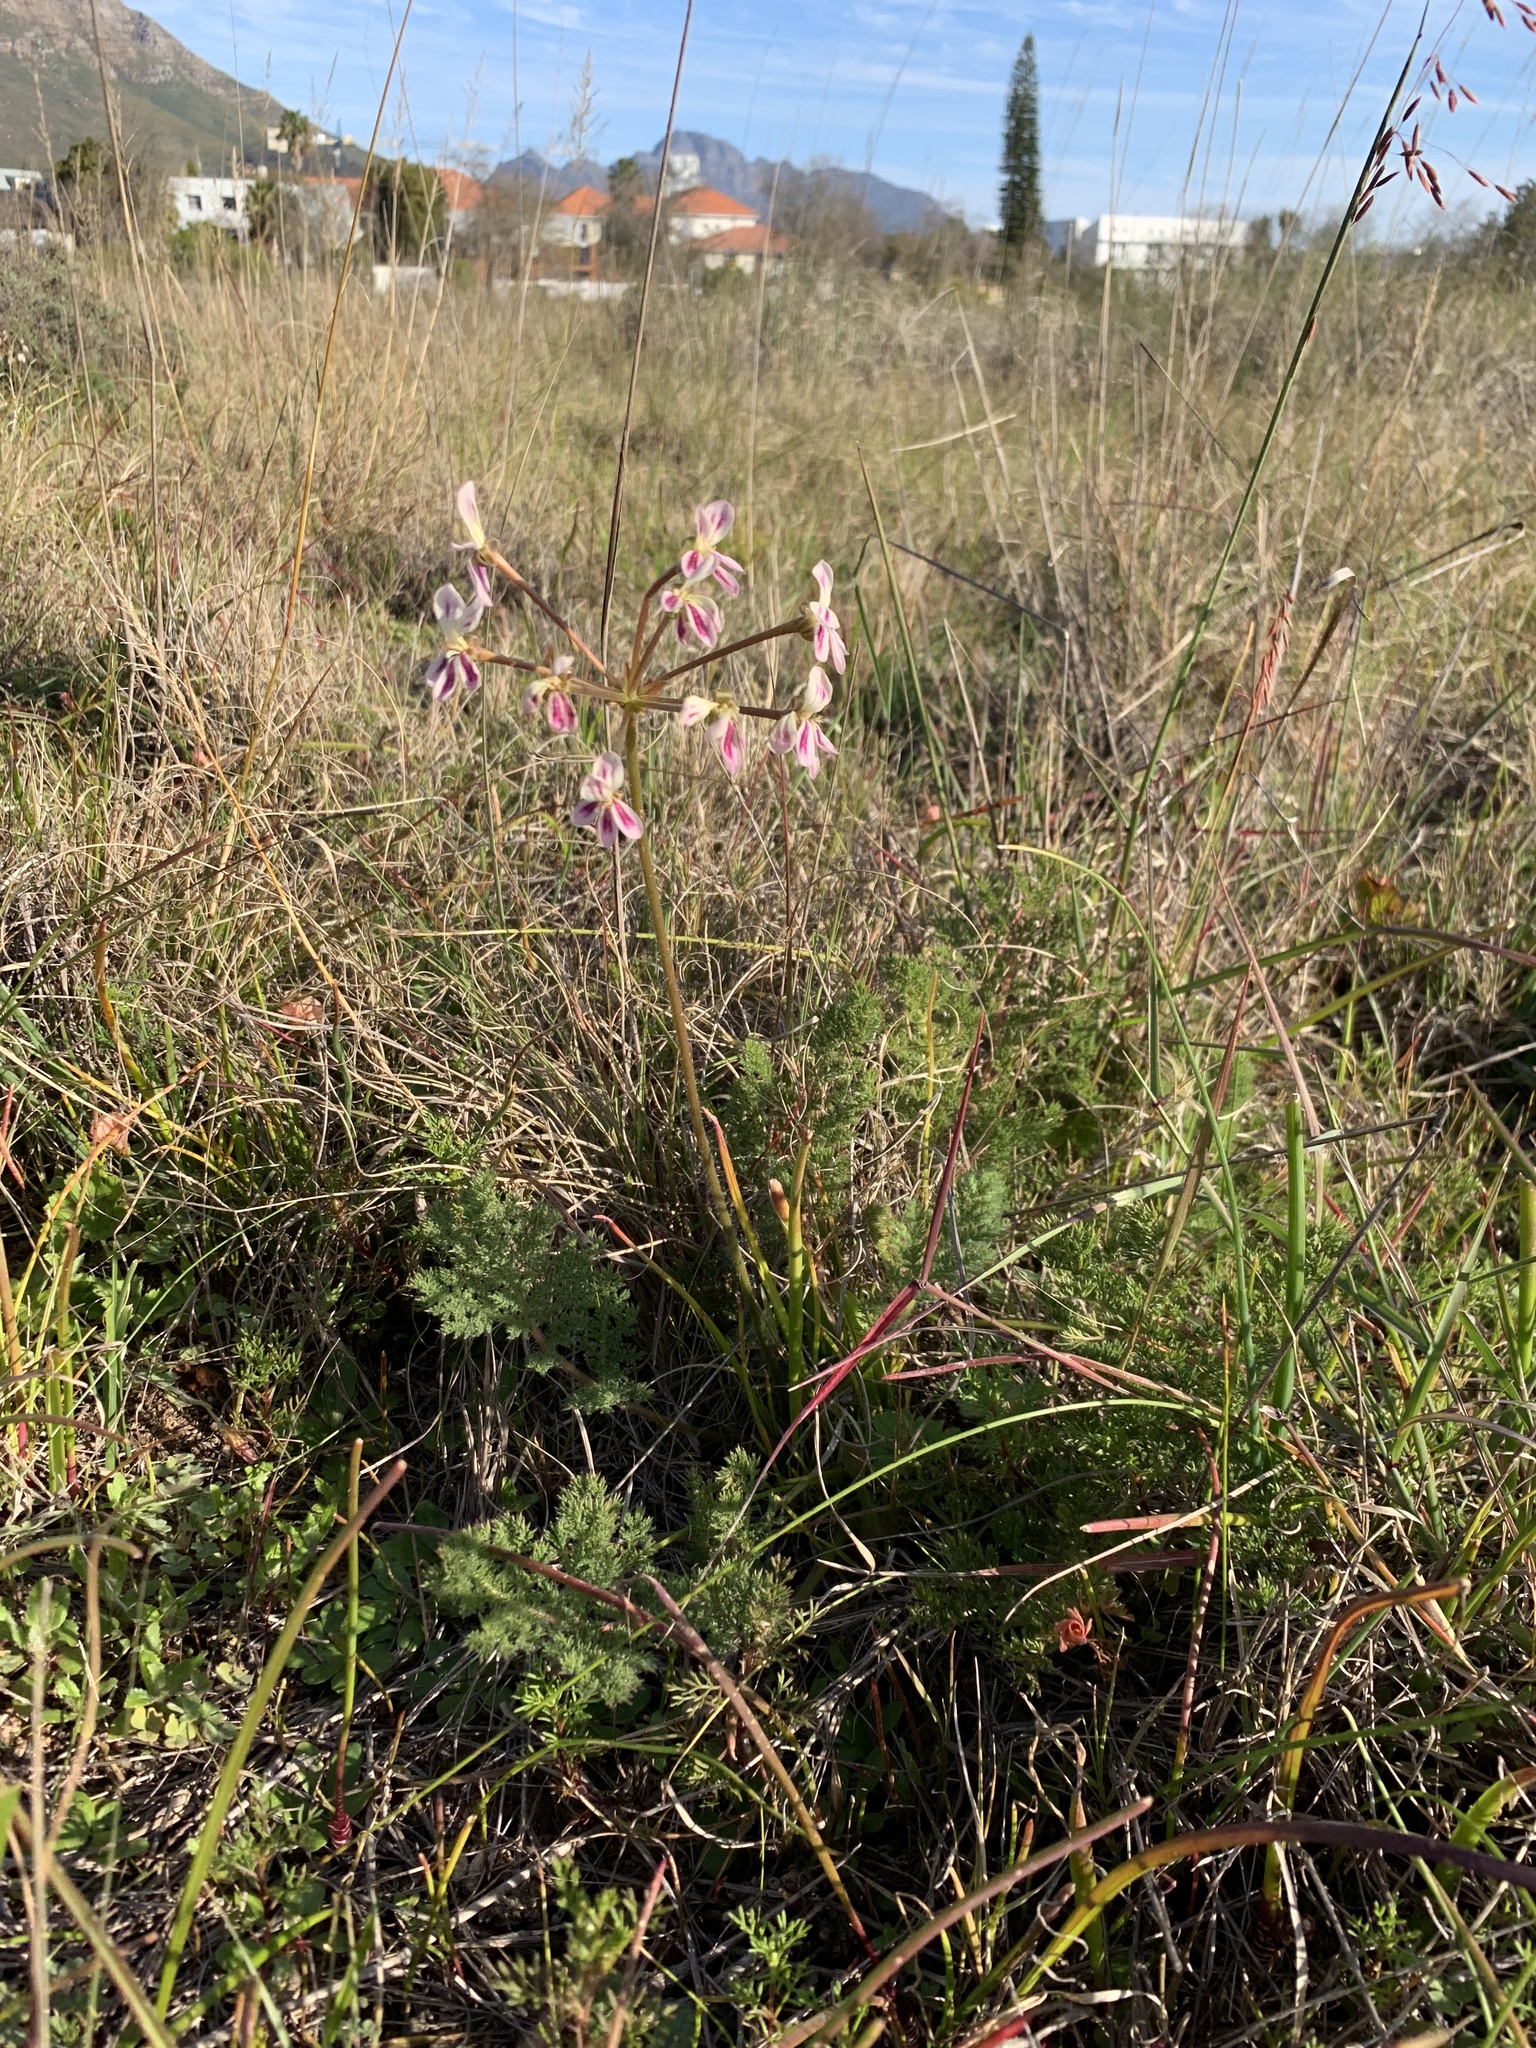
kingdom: Plantae
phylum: Tracheophyta
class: Magnoliopsida
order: Geraniales
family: Geraniaceae
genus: Pelargonium
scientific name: Pelargonium triste
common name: Night-scent pelargonium
